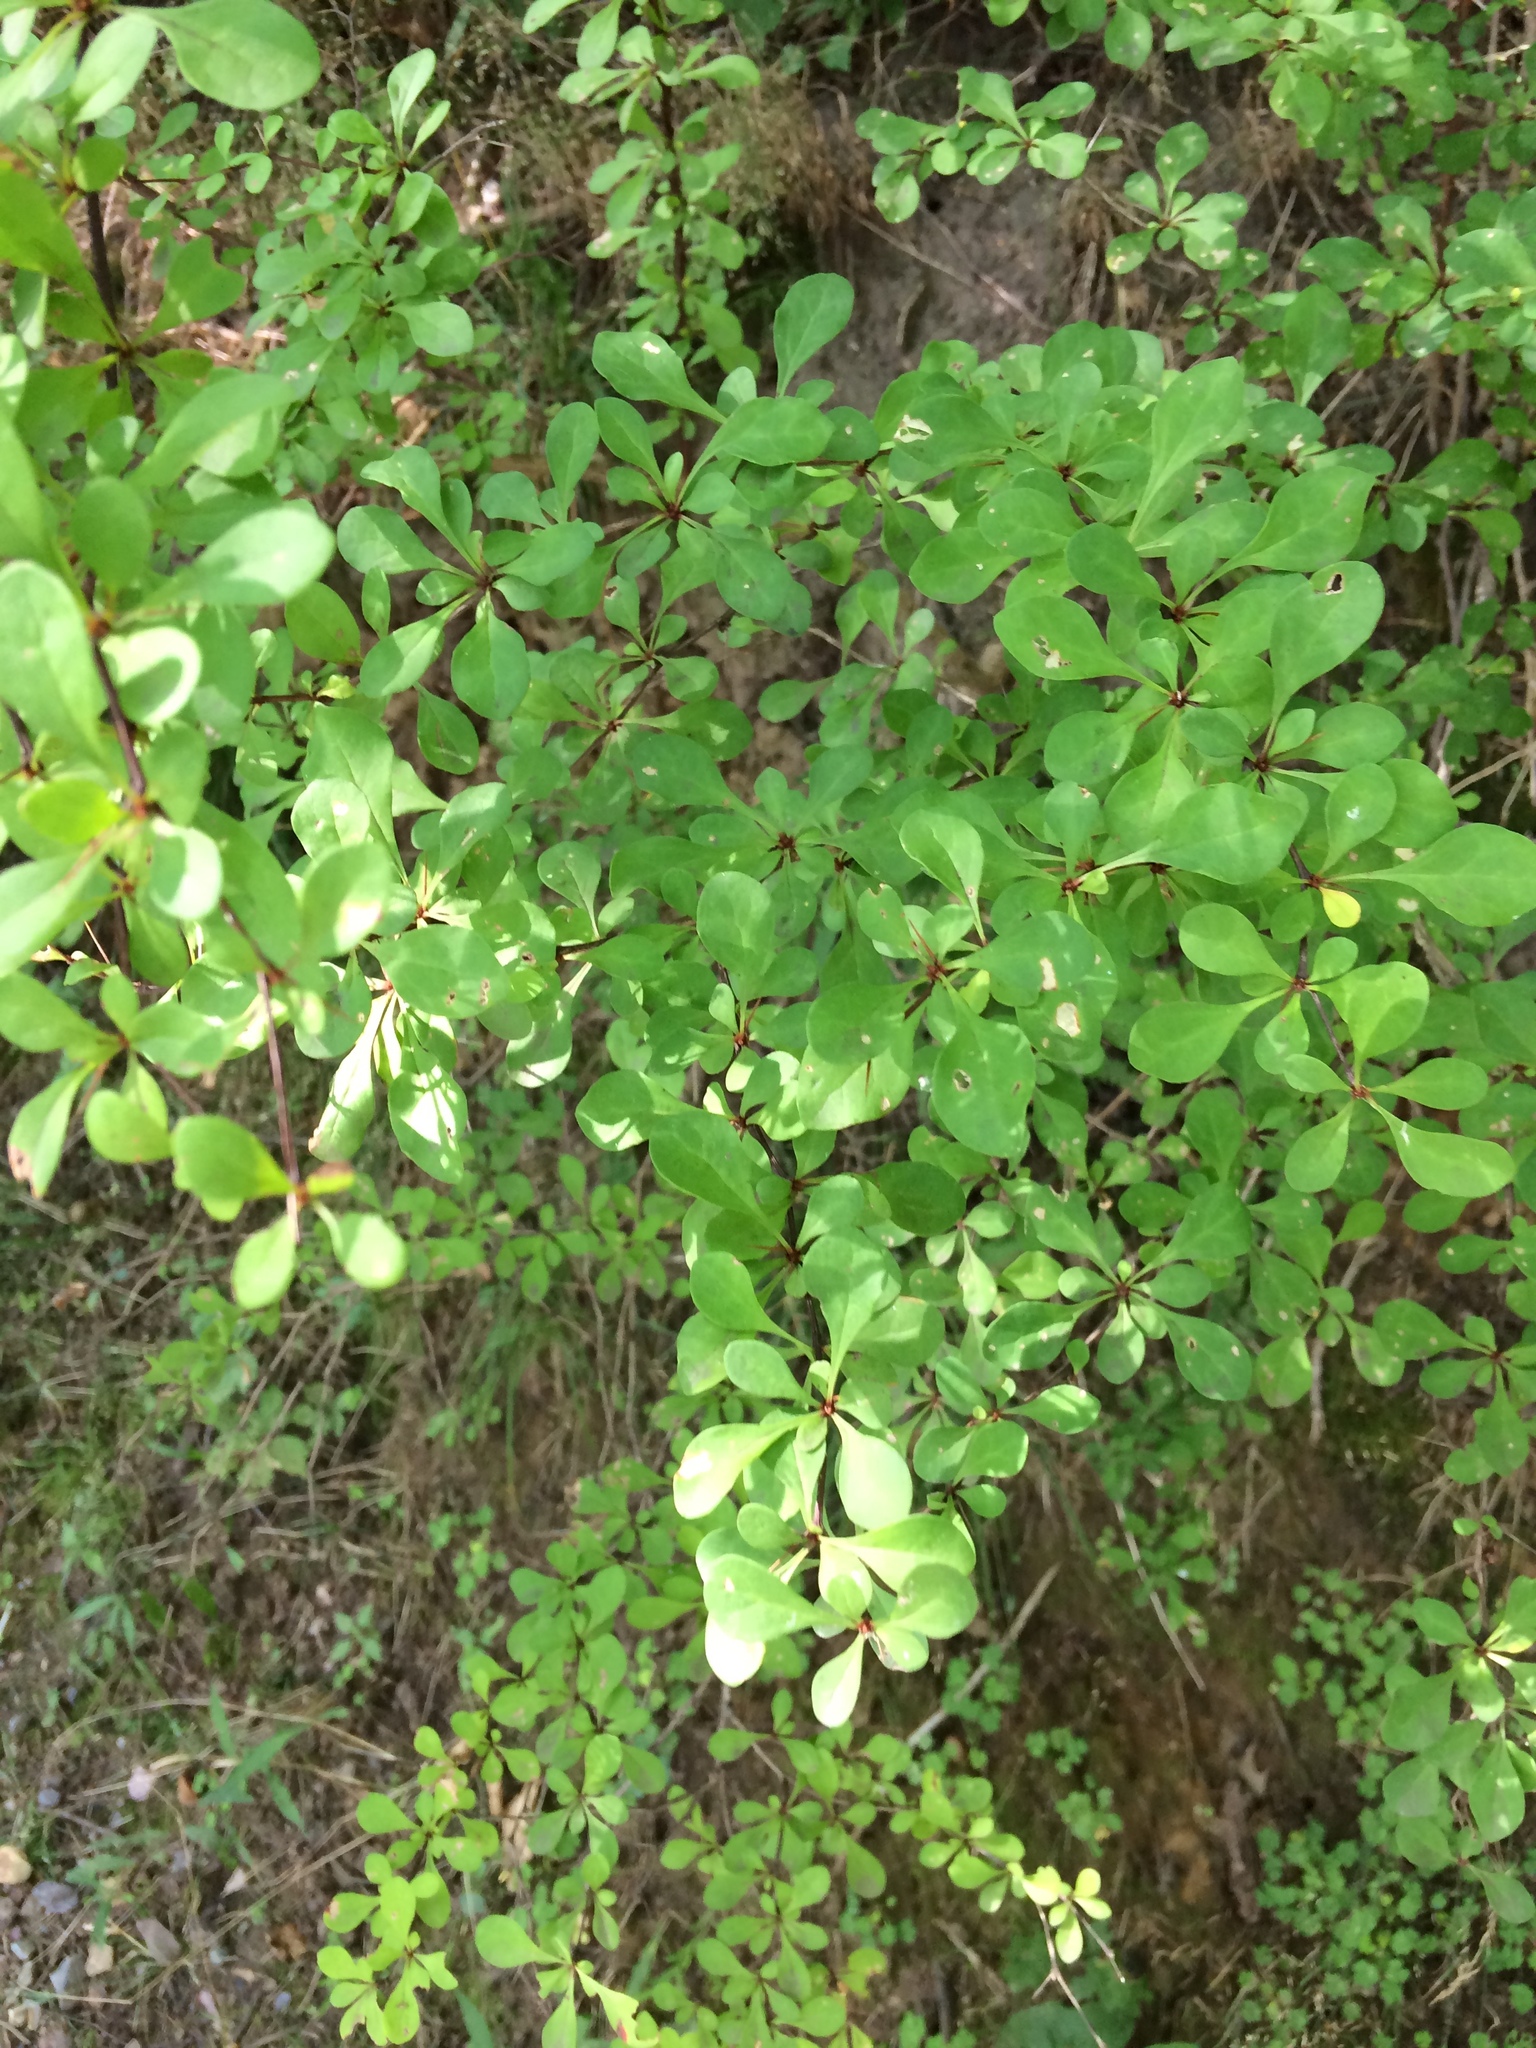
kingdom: Plantae
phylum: Tracheophyta
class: Magnoliopsida
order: Ranunculales
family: Berberidaceae
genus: Berberis
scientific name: Berberis thunbergii
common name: Japanese barberry
